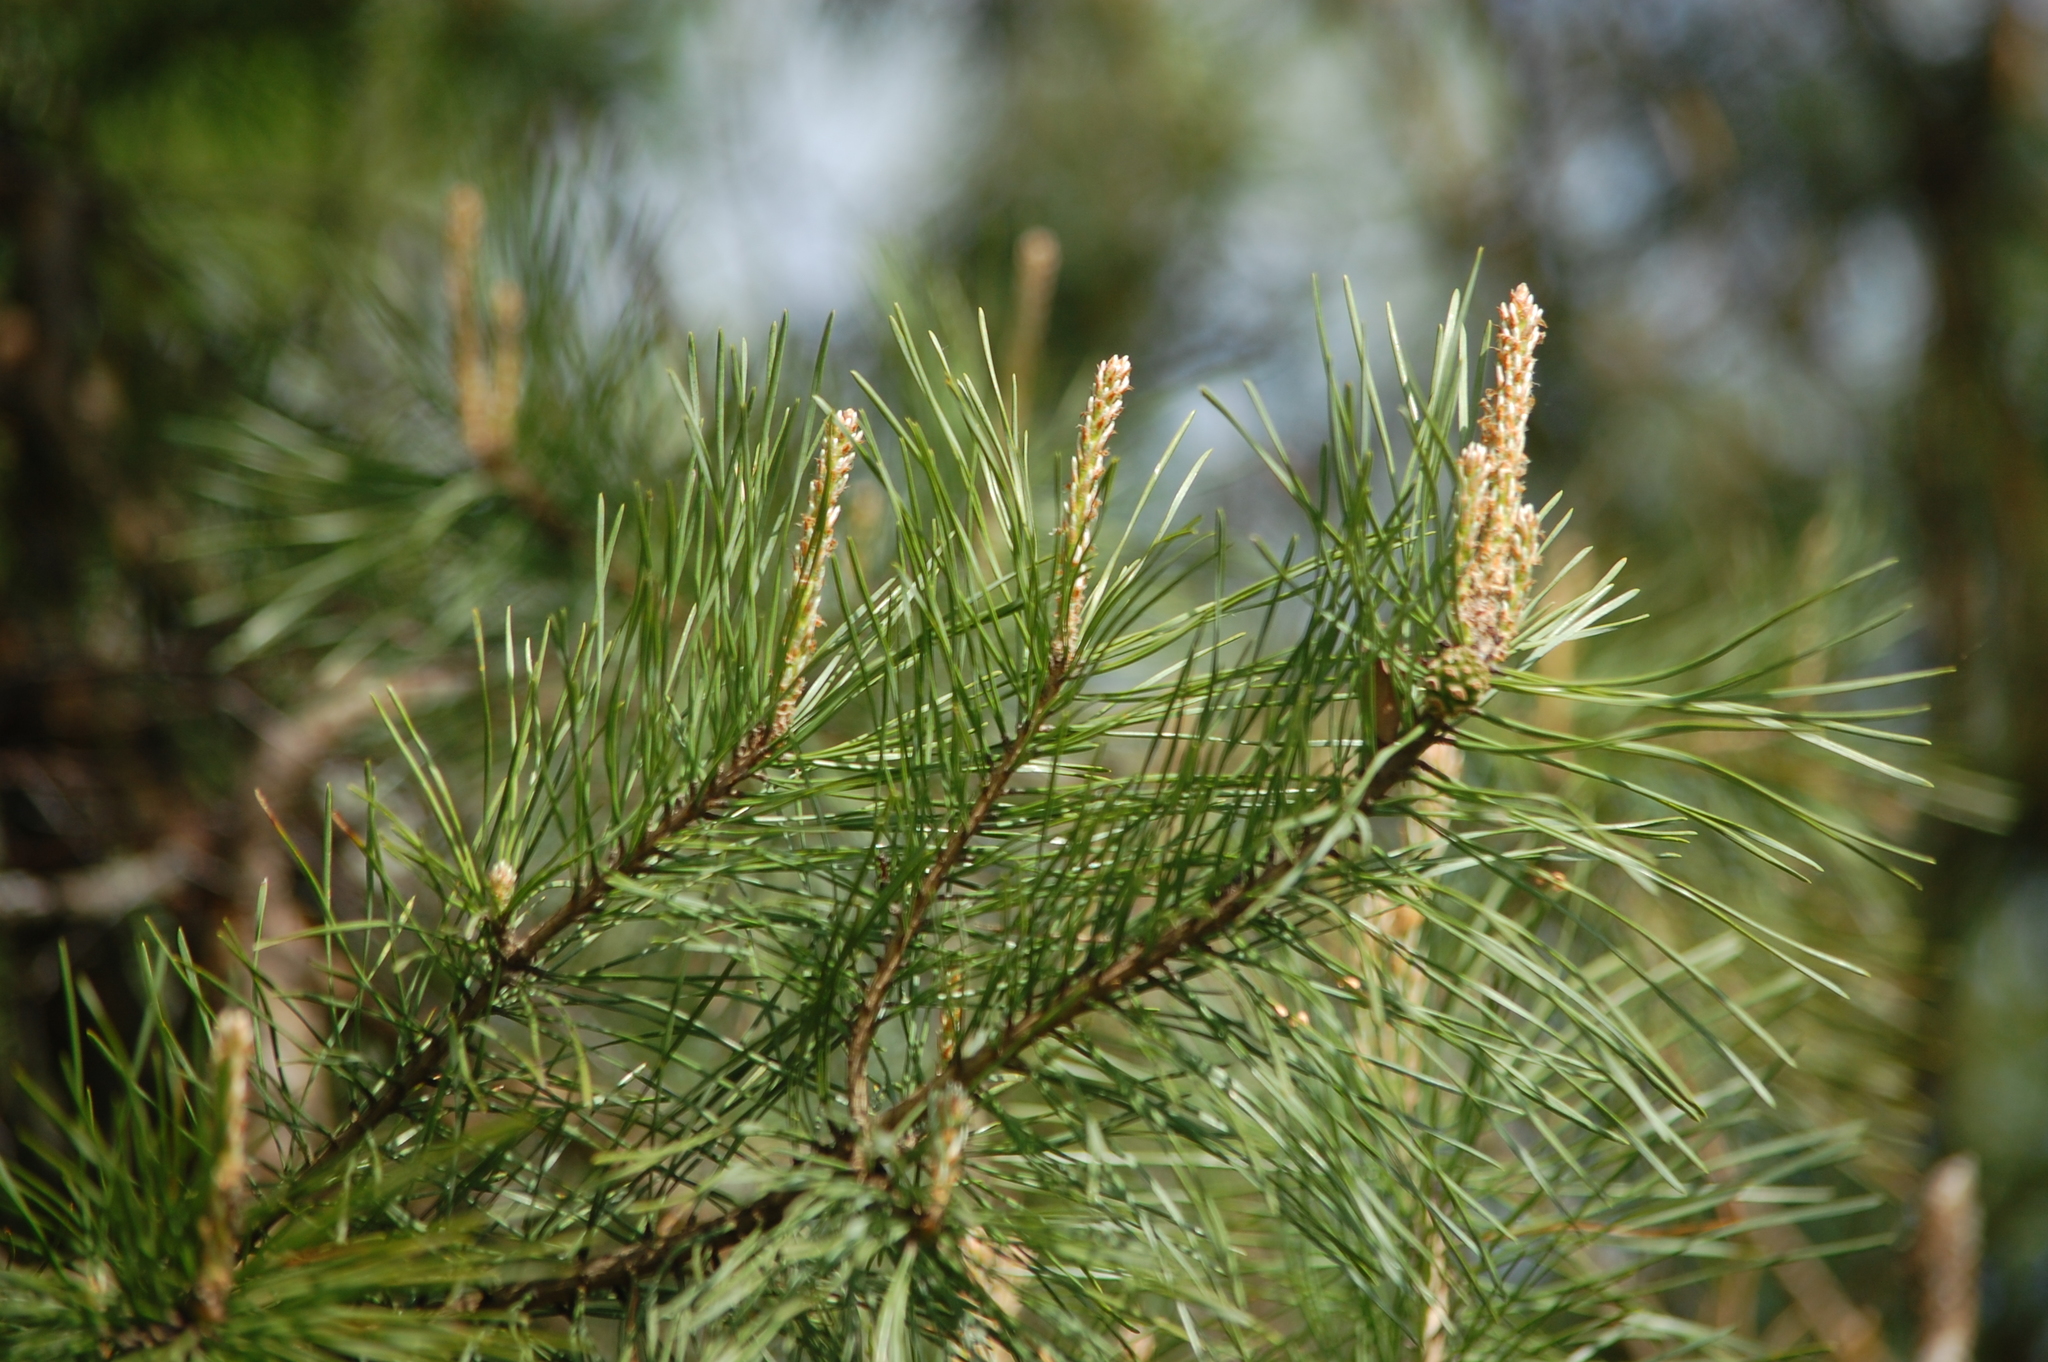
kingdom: Plantae
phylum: Tracheophyta
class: Pinopsida
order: Pinales
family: Pinaceae
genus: Pinus
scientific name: Pinus sylvestris
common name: Scots pine
